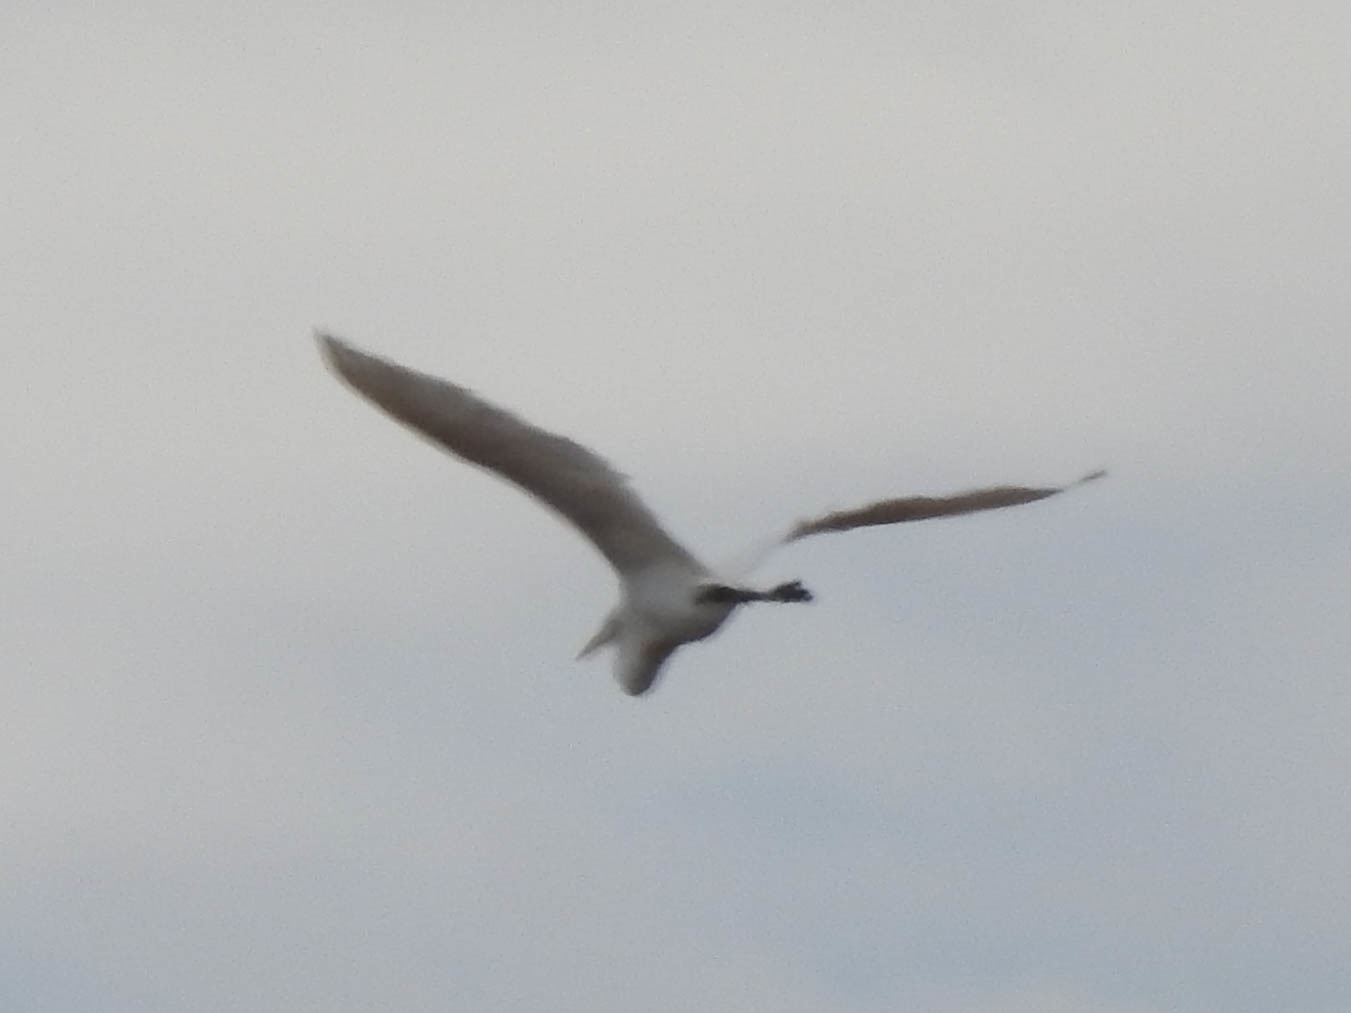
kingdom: Animalia
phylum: Chordata
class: Aves
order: Pelecaniformes
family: Ardeidae
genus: Ardea
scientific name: Ardea alba
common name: Great egret
